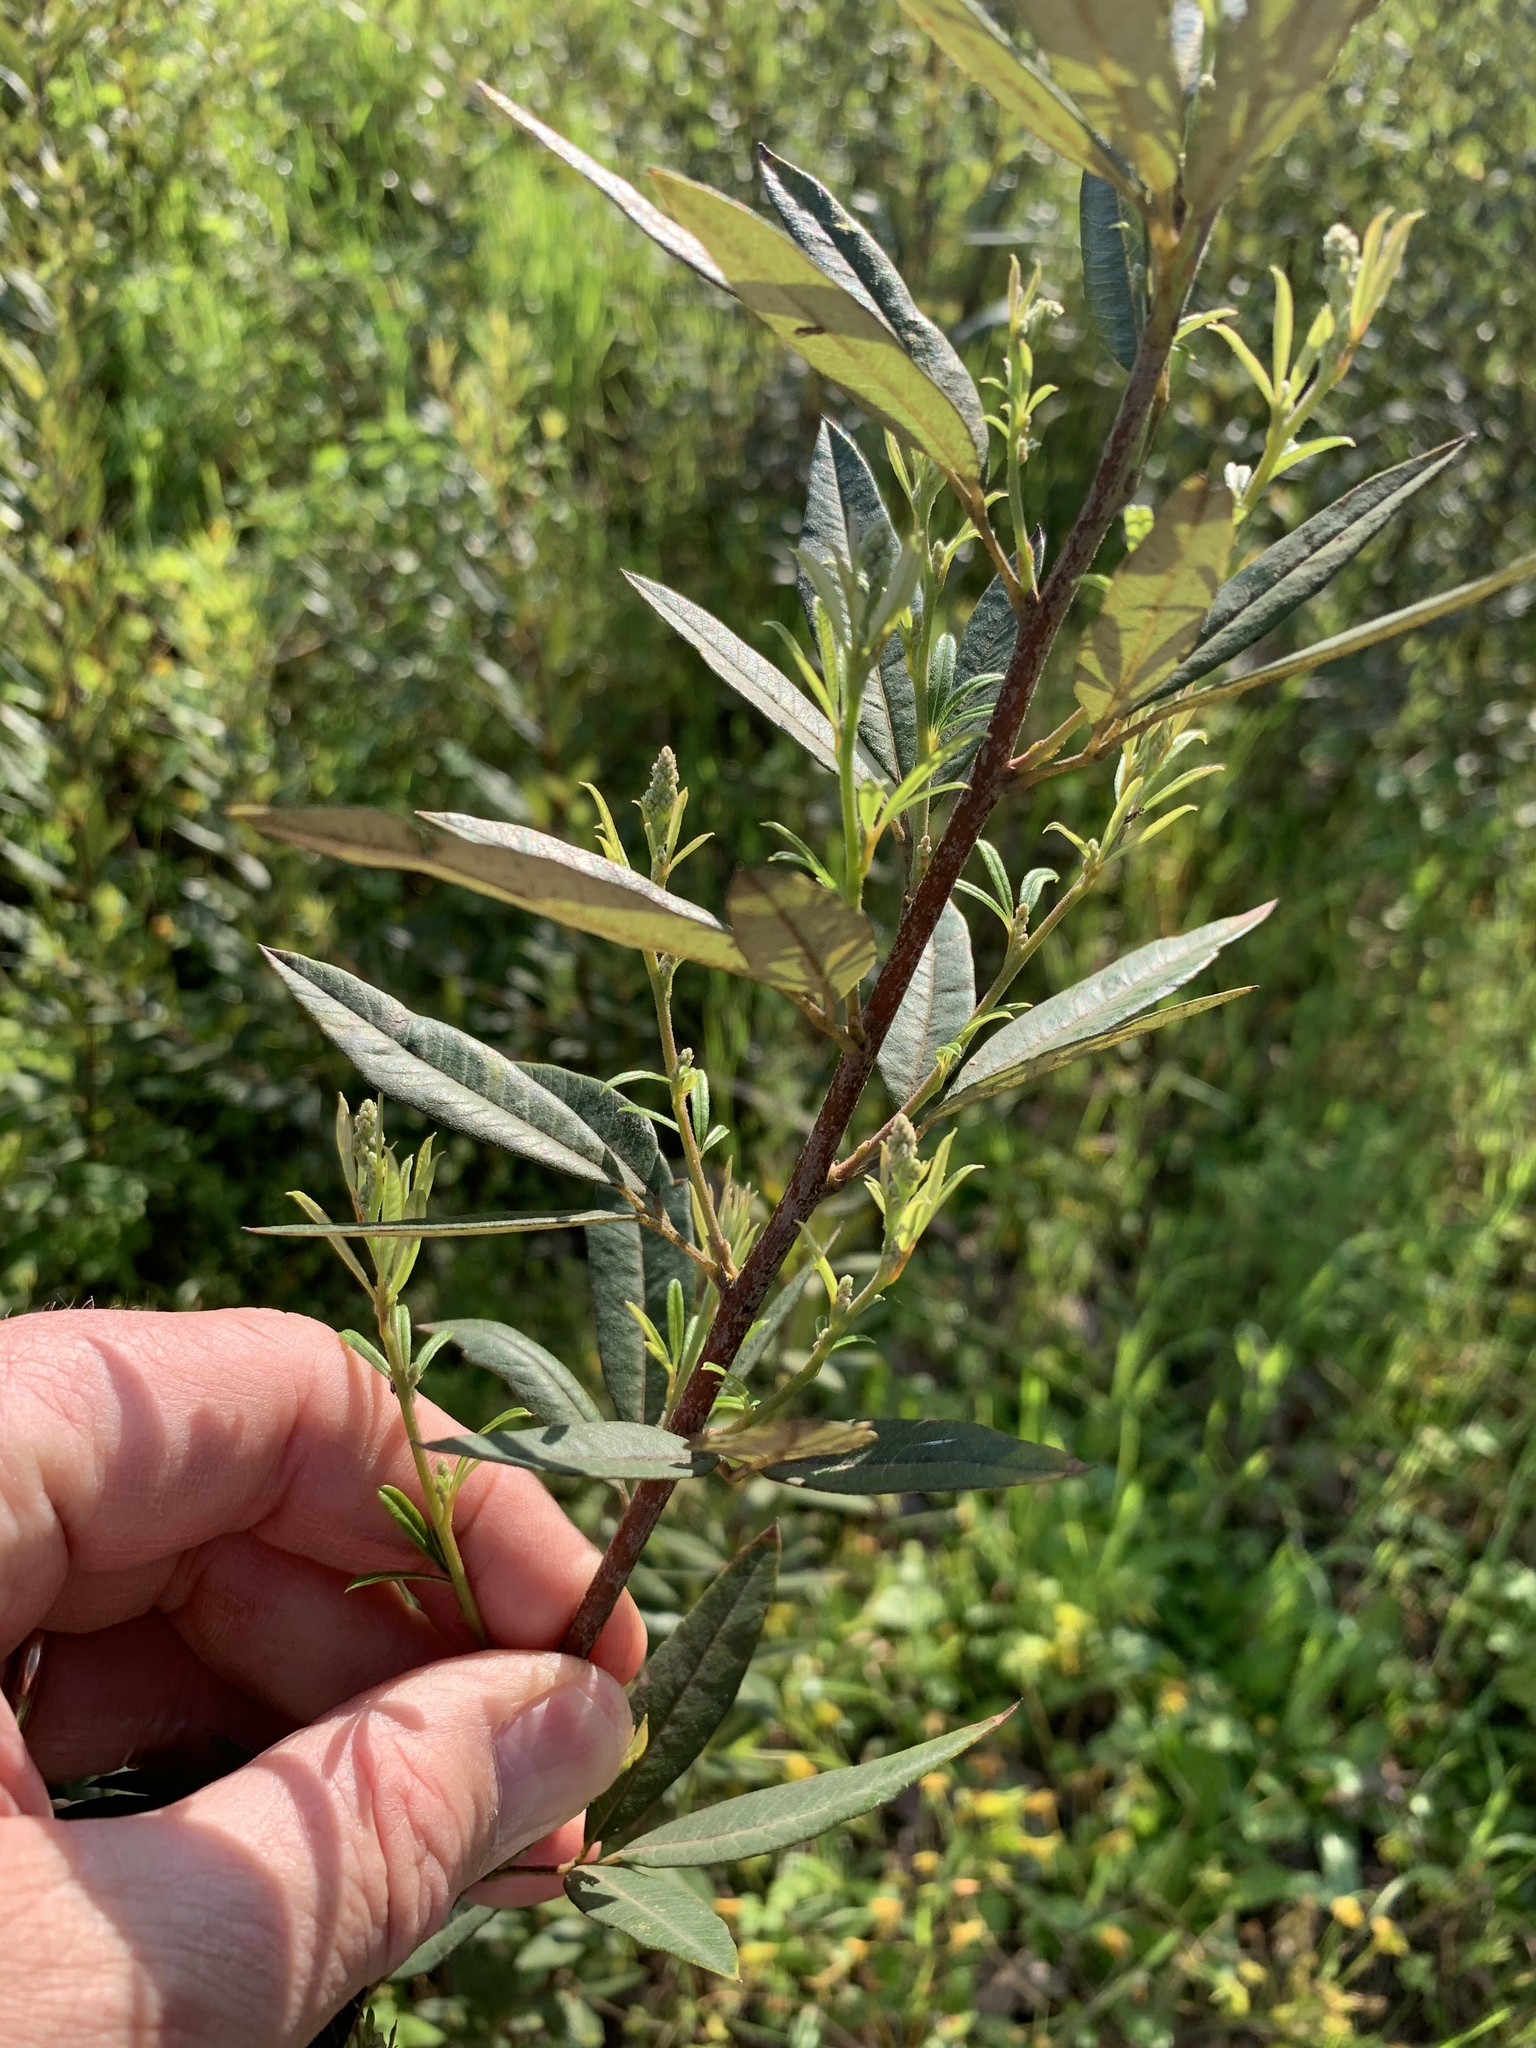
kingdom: Plantae
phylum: Tracheophyta
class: Magnoliopsida
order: Sapindales
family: Anacardiaceae
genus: Searsia
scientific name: Searsia angustifolia
